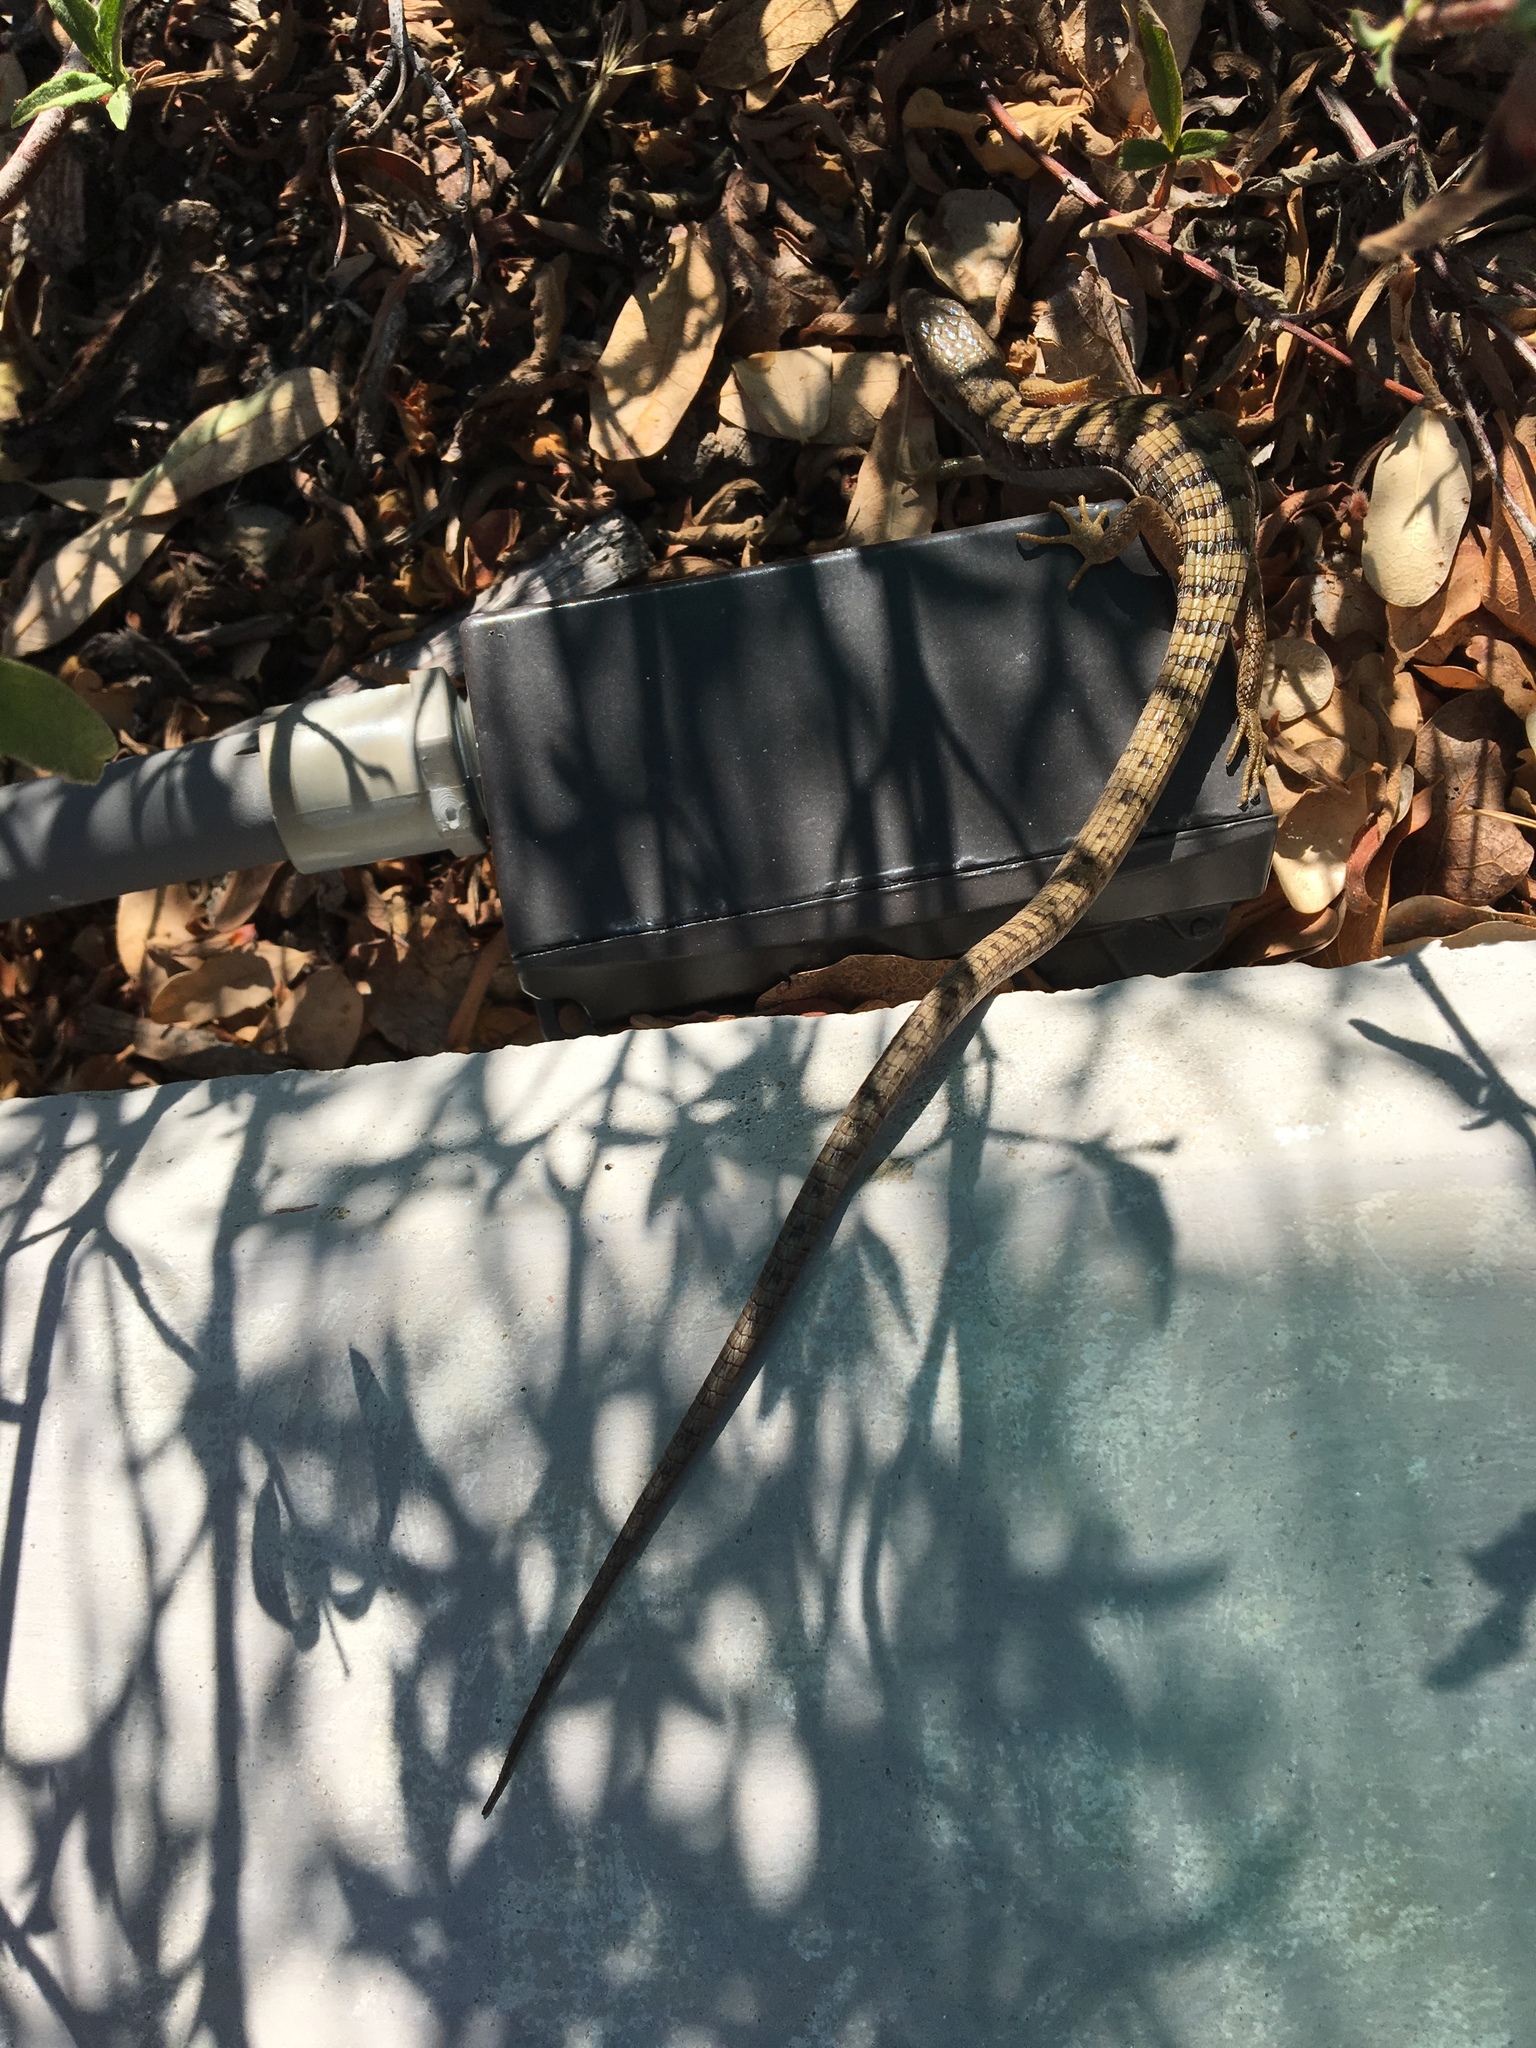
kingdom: Animalia
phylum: Chordata
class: Squamata
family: Anguidae
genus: Elgaria
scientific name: Elgaria multicarinata
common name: Southern alligator lizard
